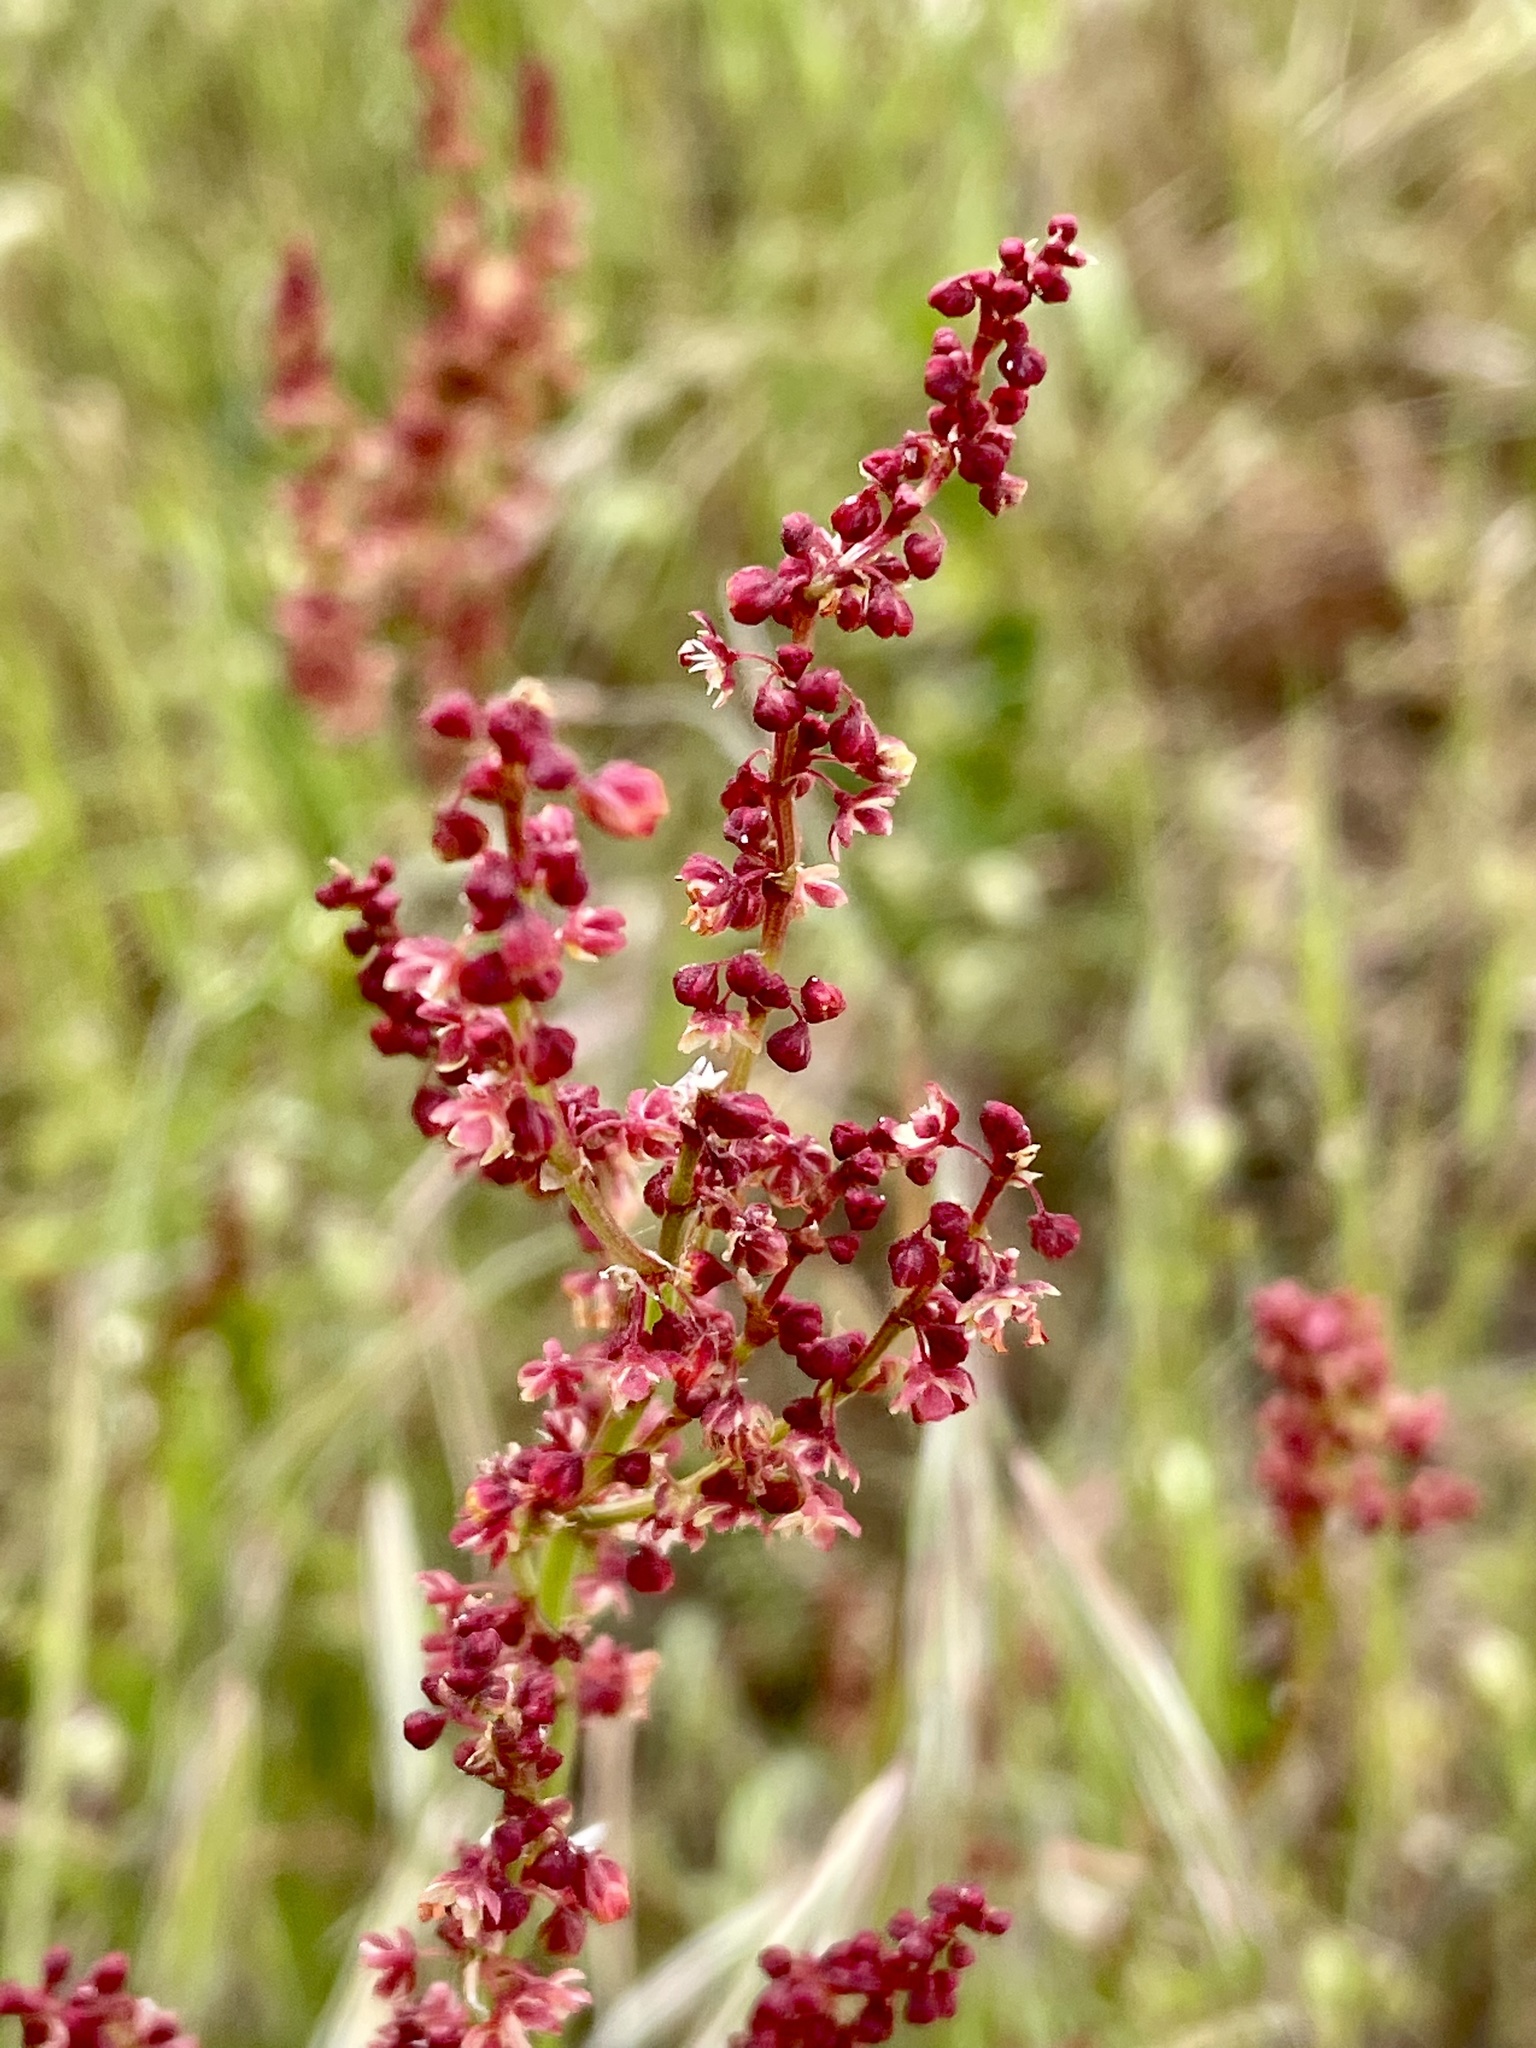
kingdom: Plantae
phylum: Tracheophyta
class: Magnoliopsida
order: Caryophyllales
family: Polygonaceae
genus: Rumex
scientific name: Rumex acetosella
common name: Common sheep sorrel
